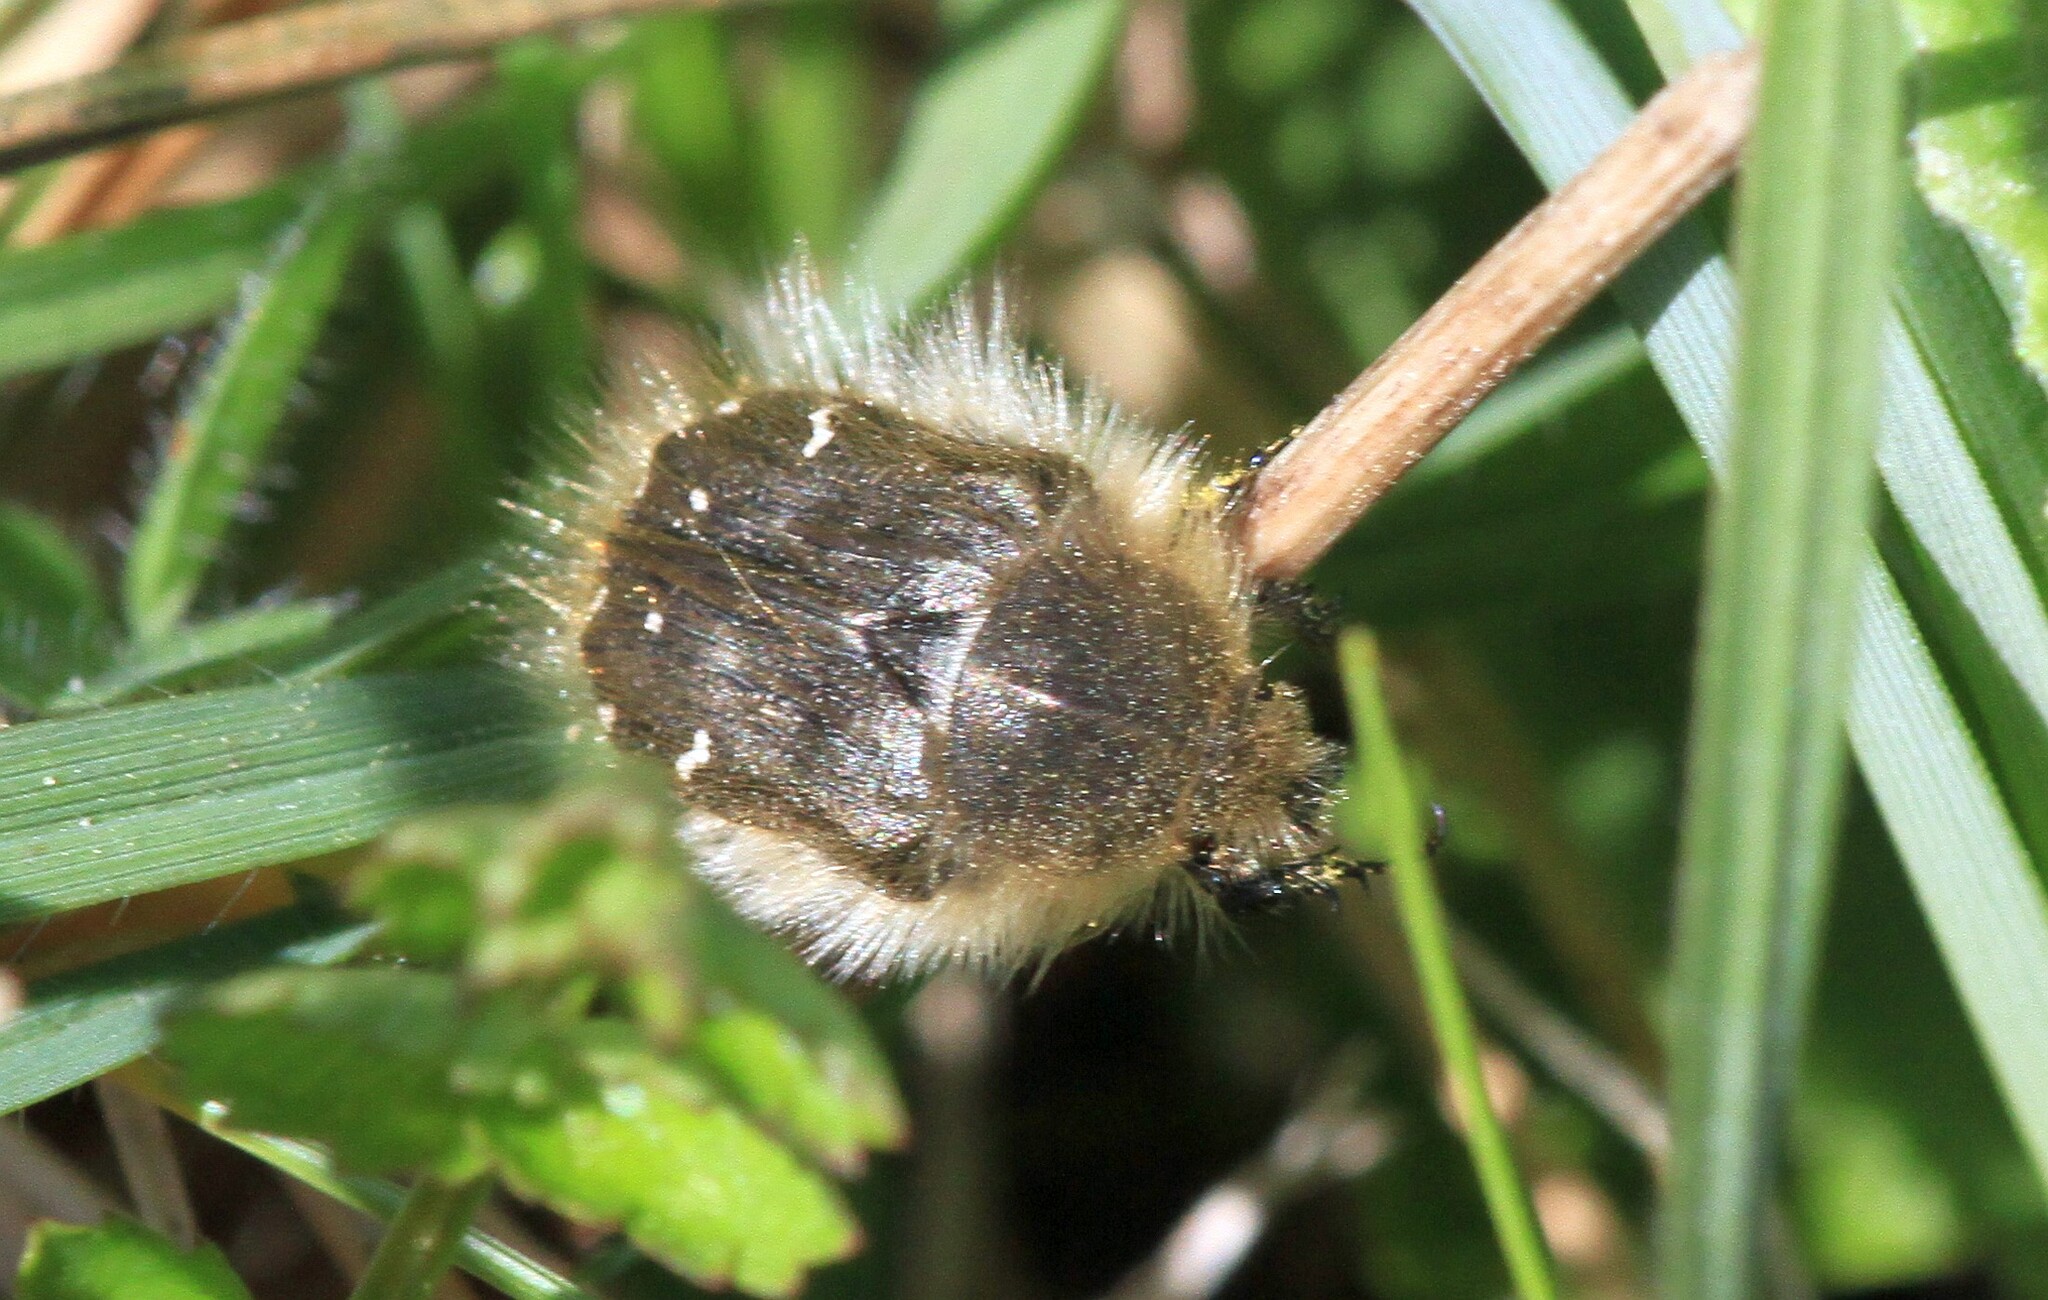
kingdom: Animalia
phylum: Arthropoda
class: Insecta
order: Coleoptera
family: Scarabaeidae
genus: Tropinota
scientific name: Tropinota hirta
